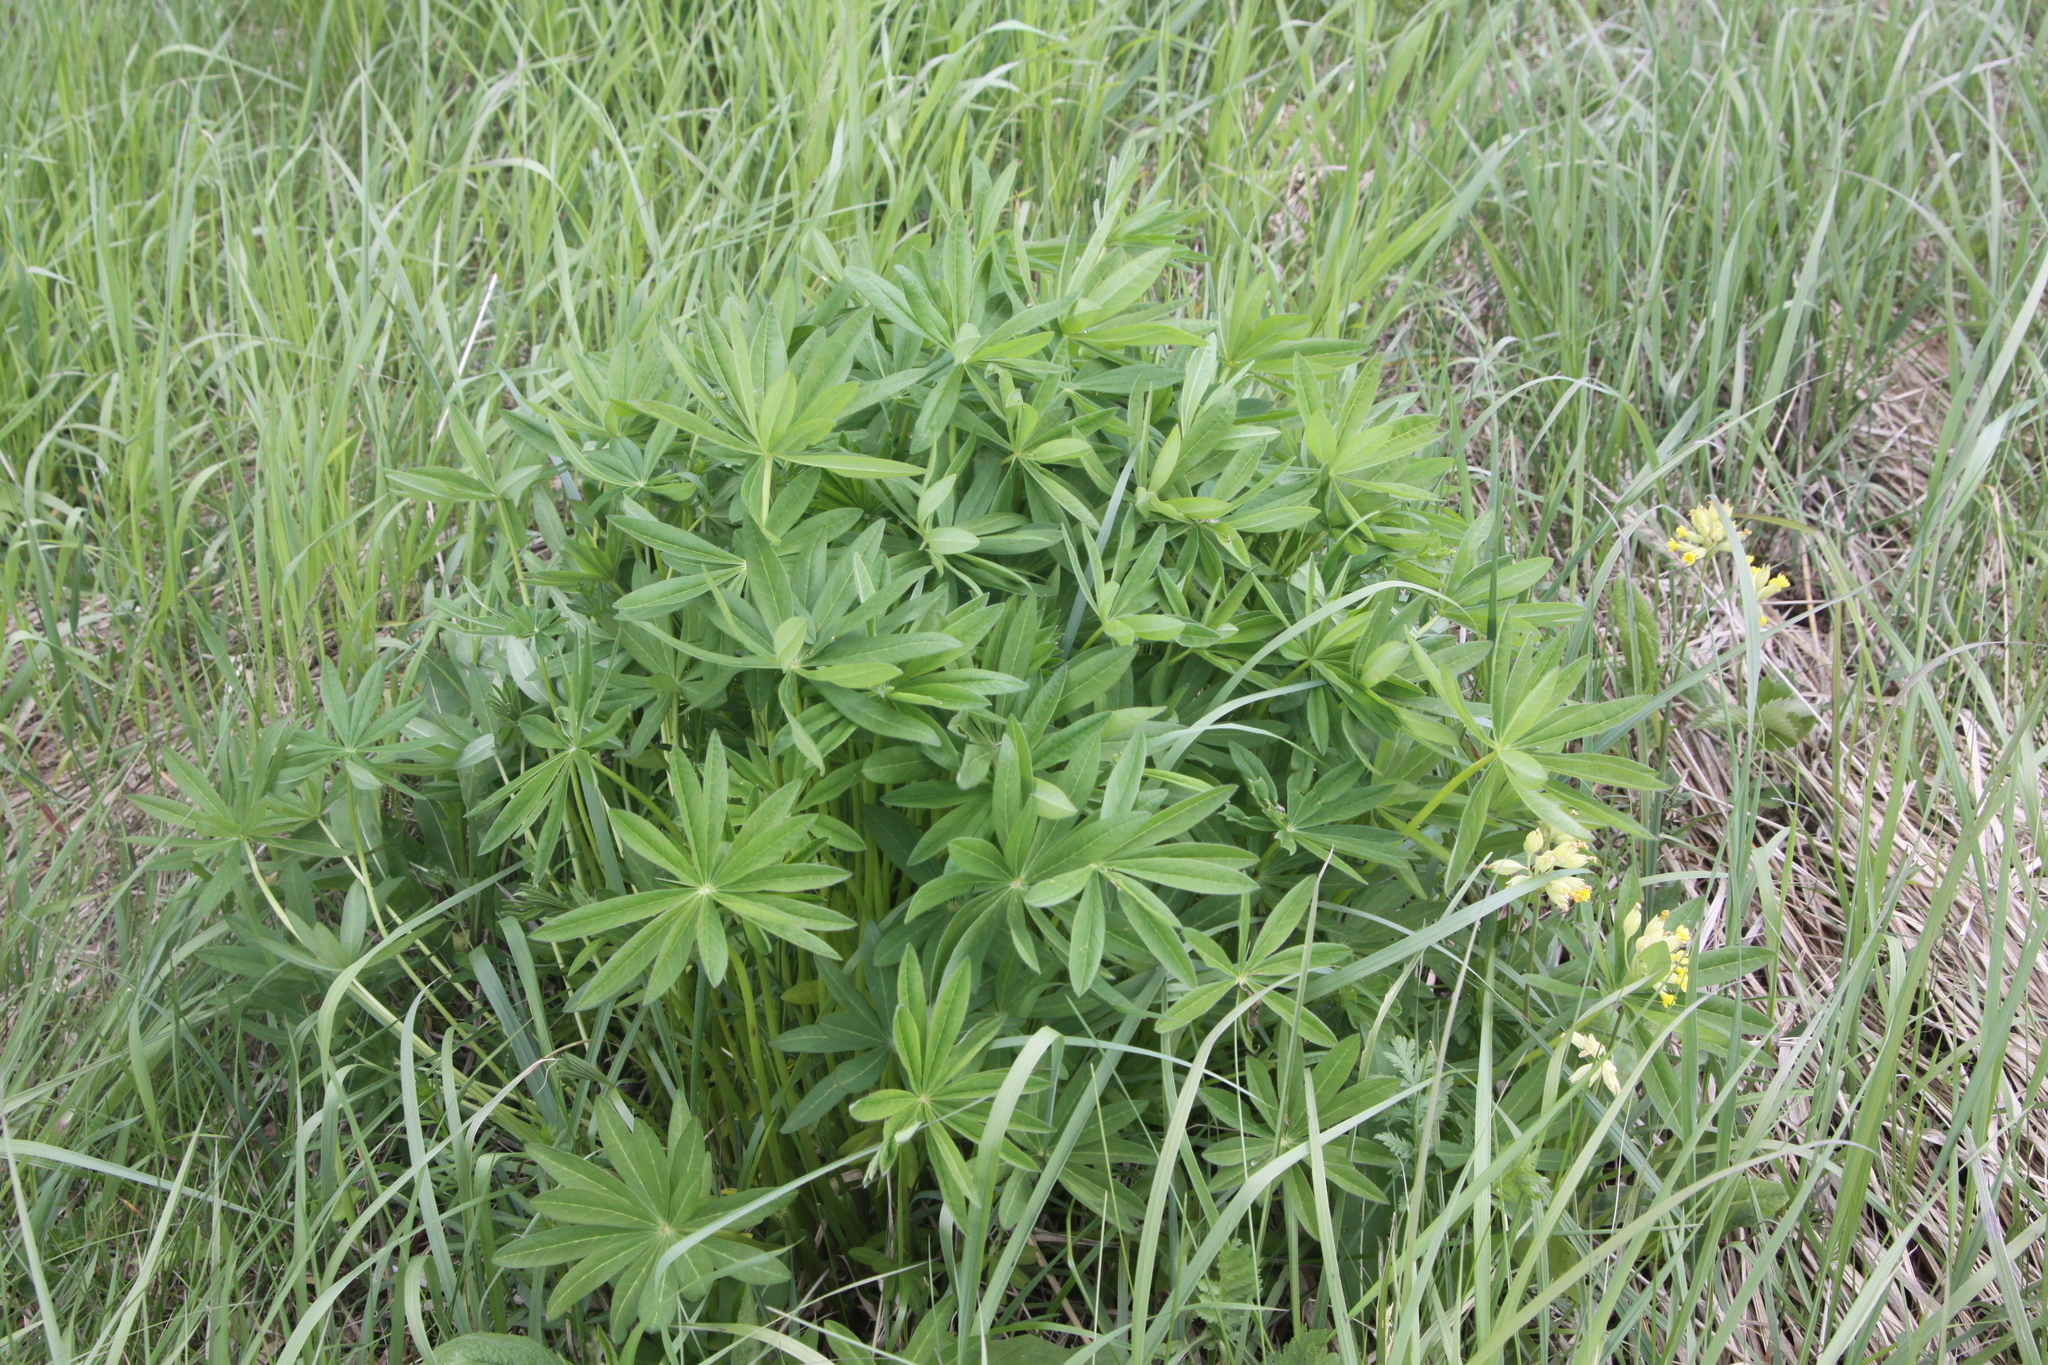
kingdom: Plantae
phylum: Tracheophyta
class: Magnoliopsida
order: Fabales
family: Fabaceae
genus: Lupinus
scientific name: Lupinus polyphyllus
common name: Garden lupin
